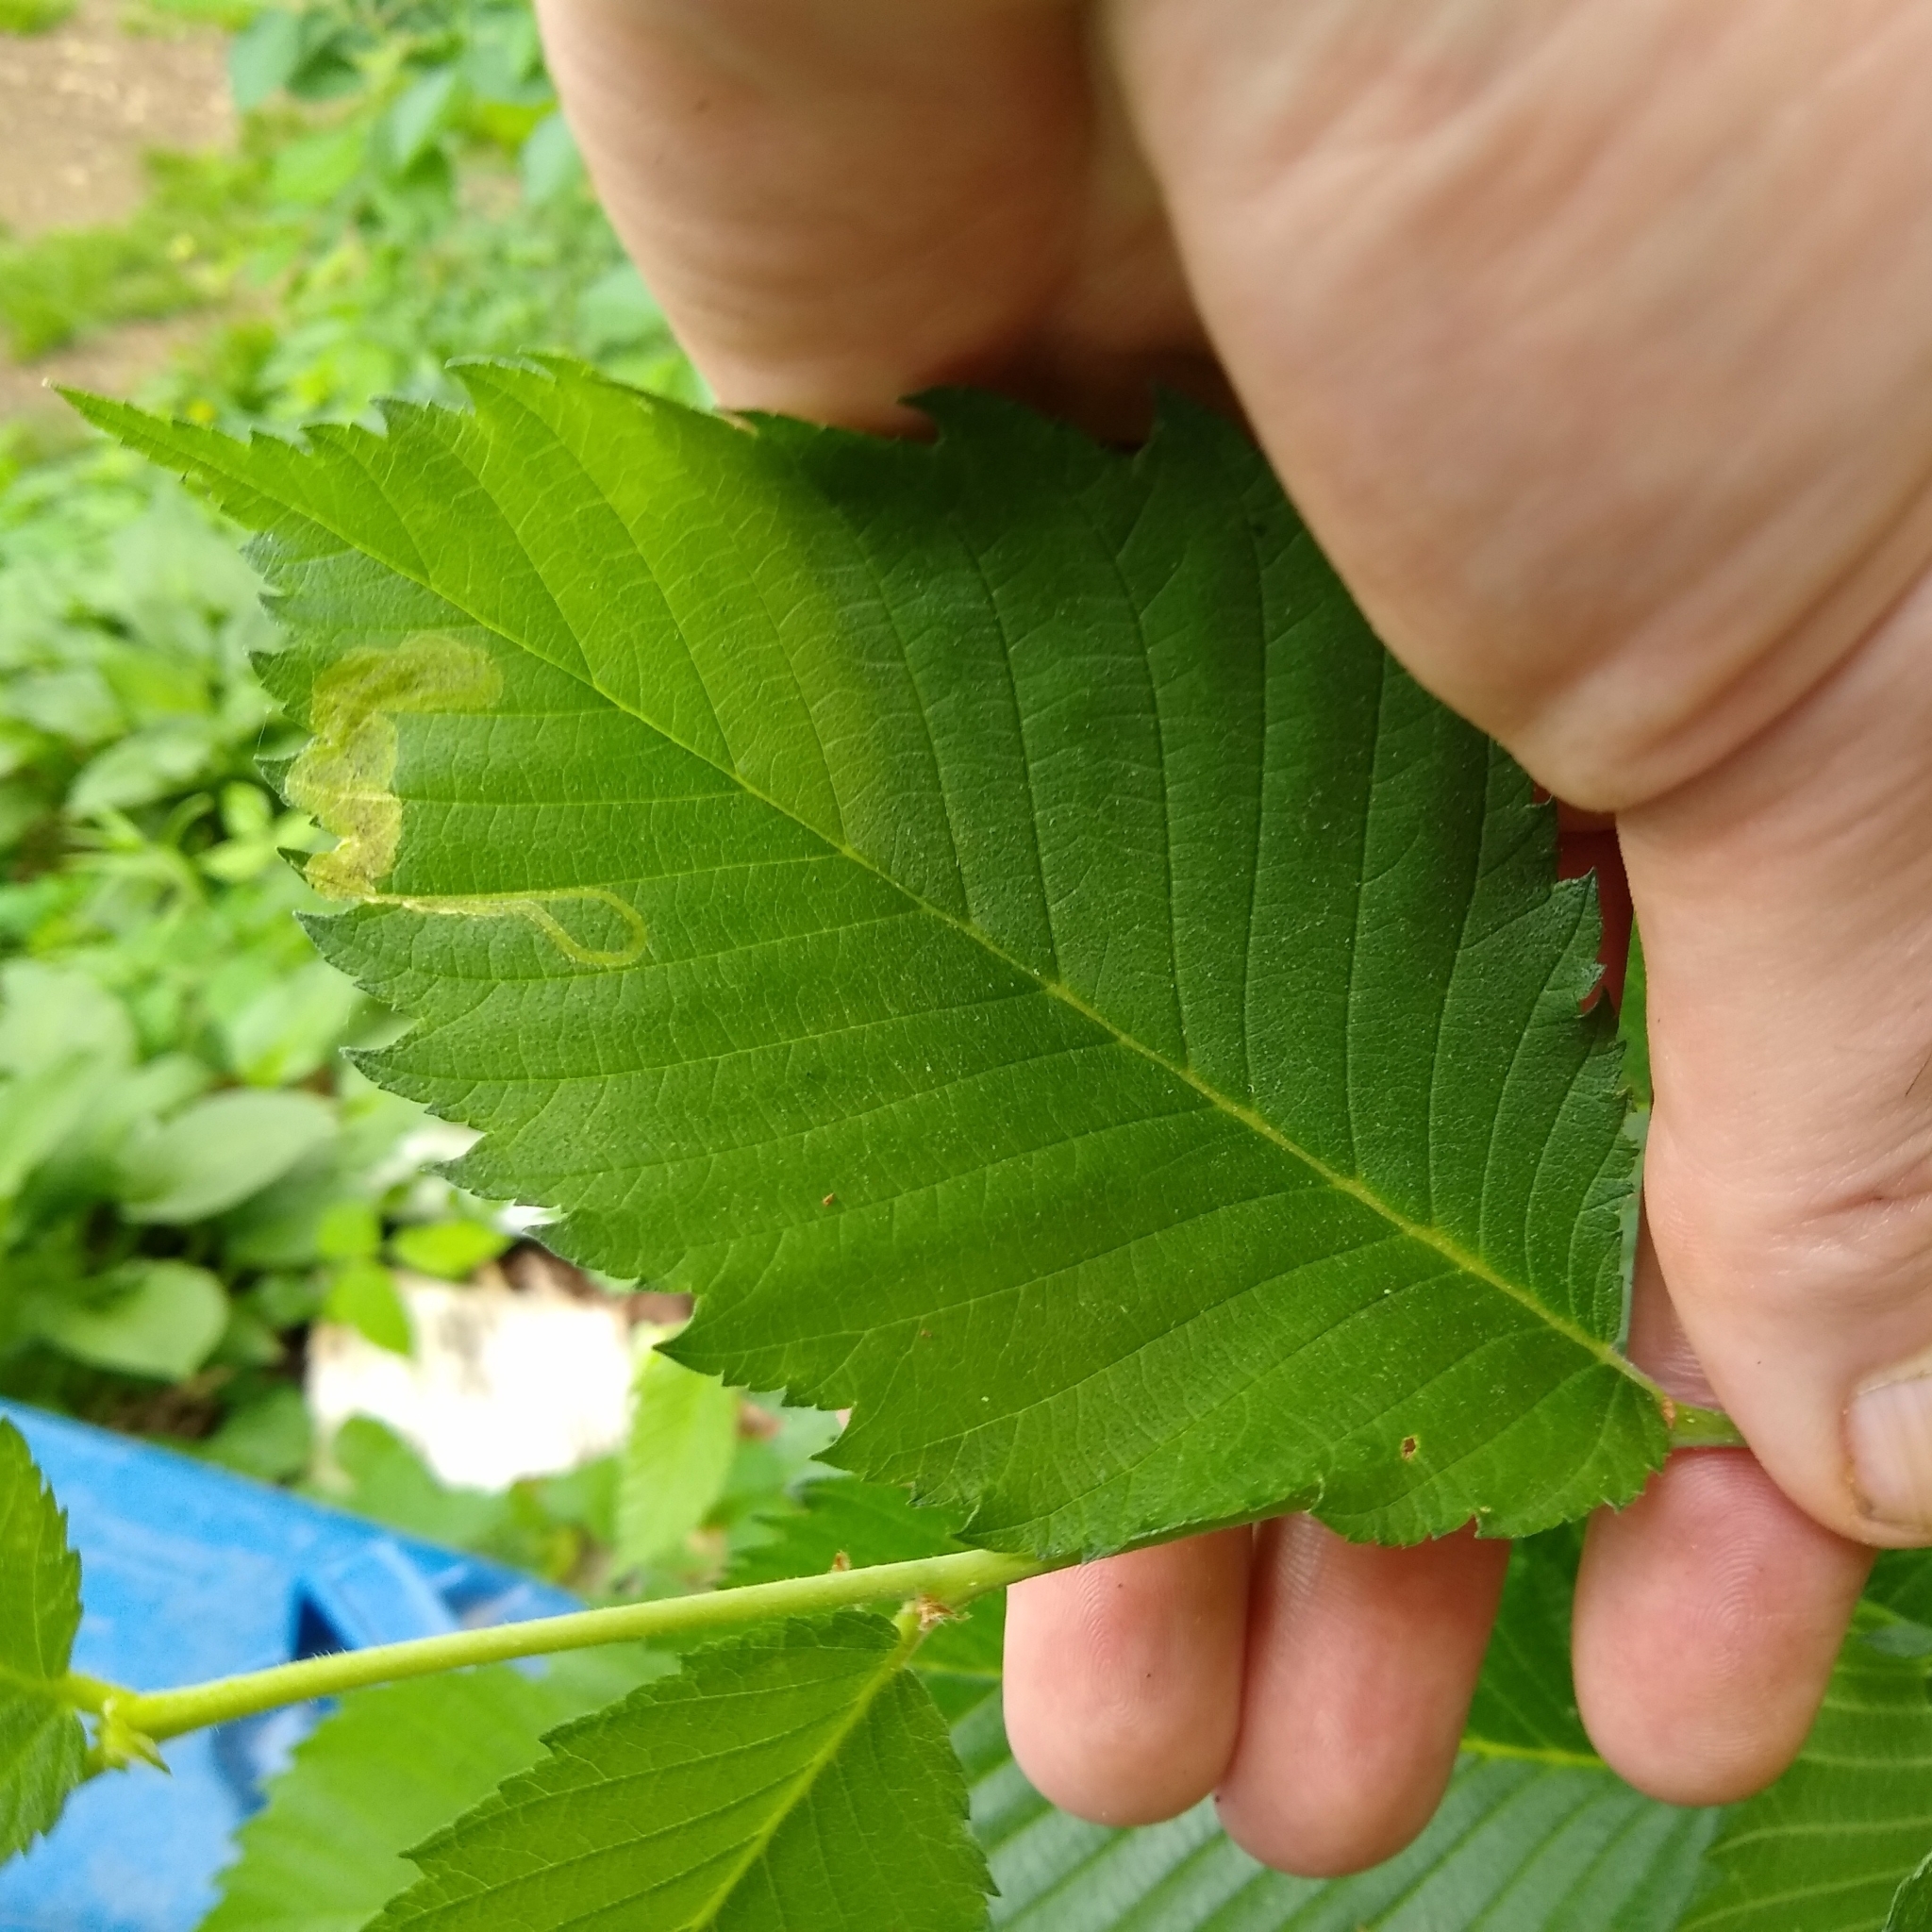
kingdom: Plantae
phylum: Tracheophyta
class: Magnoliopsida
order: Rosales
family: Ulmaceae
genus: Ulmus
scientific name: Ulmus americana
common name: American elm
